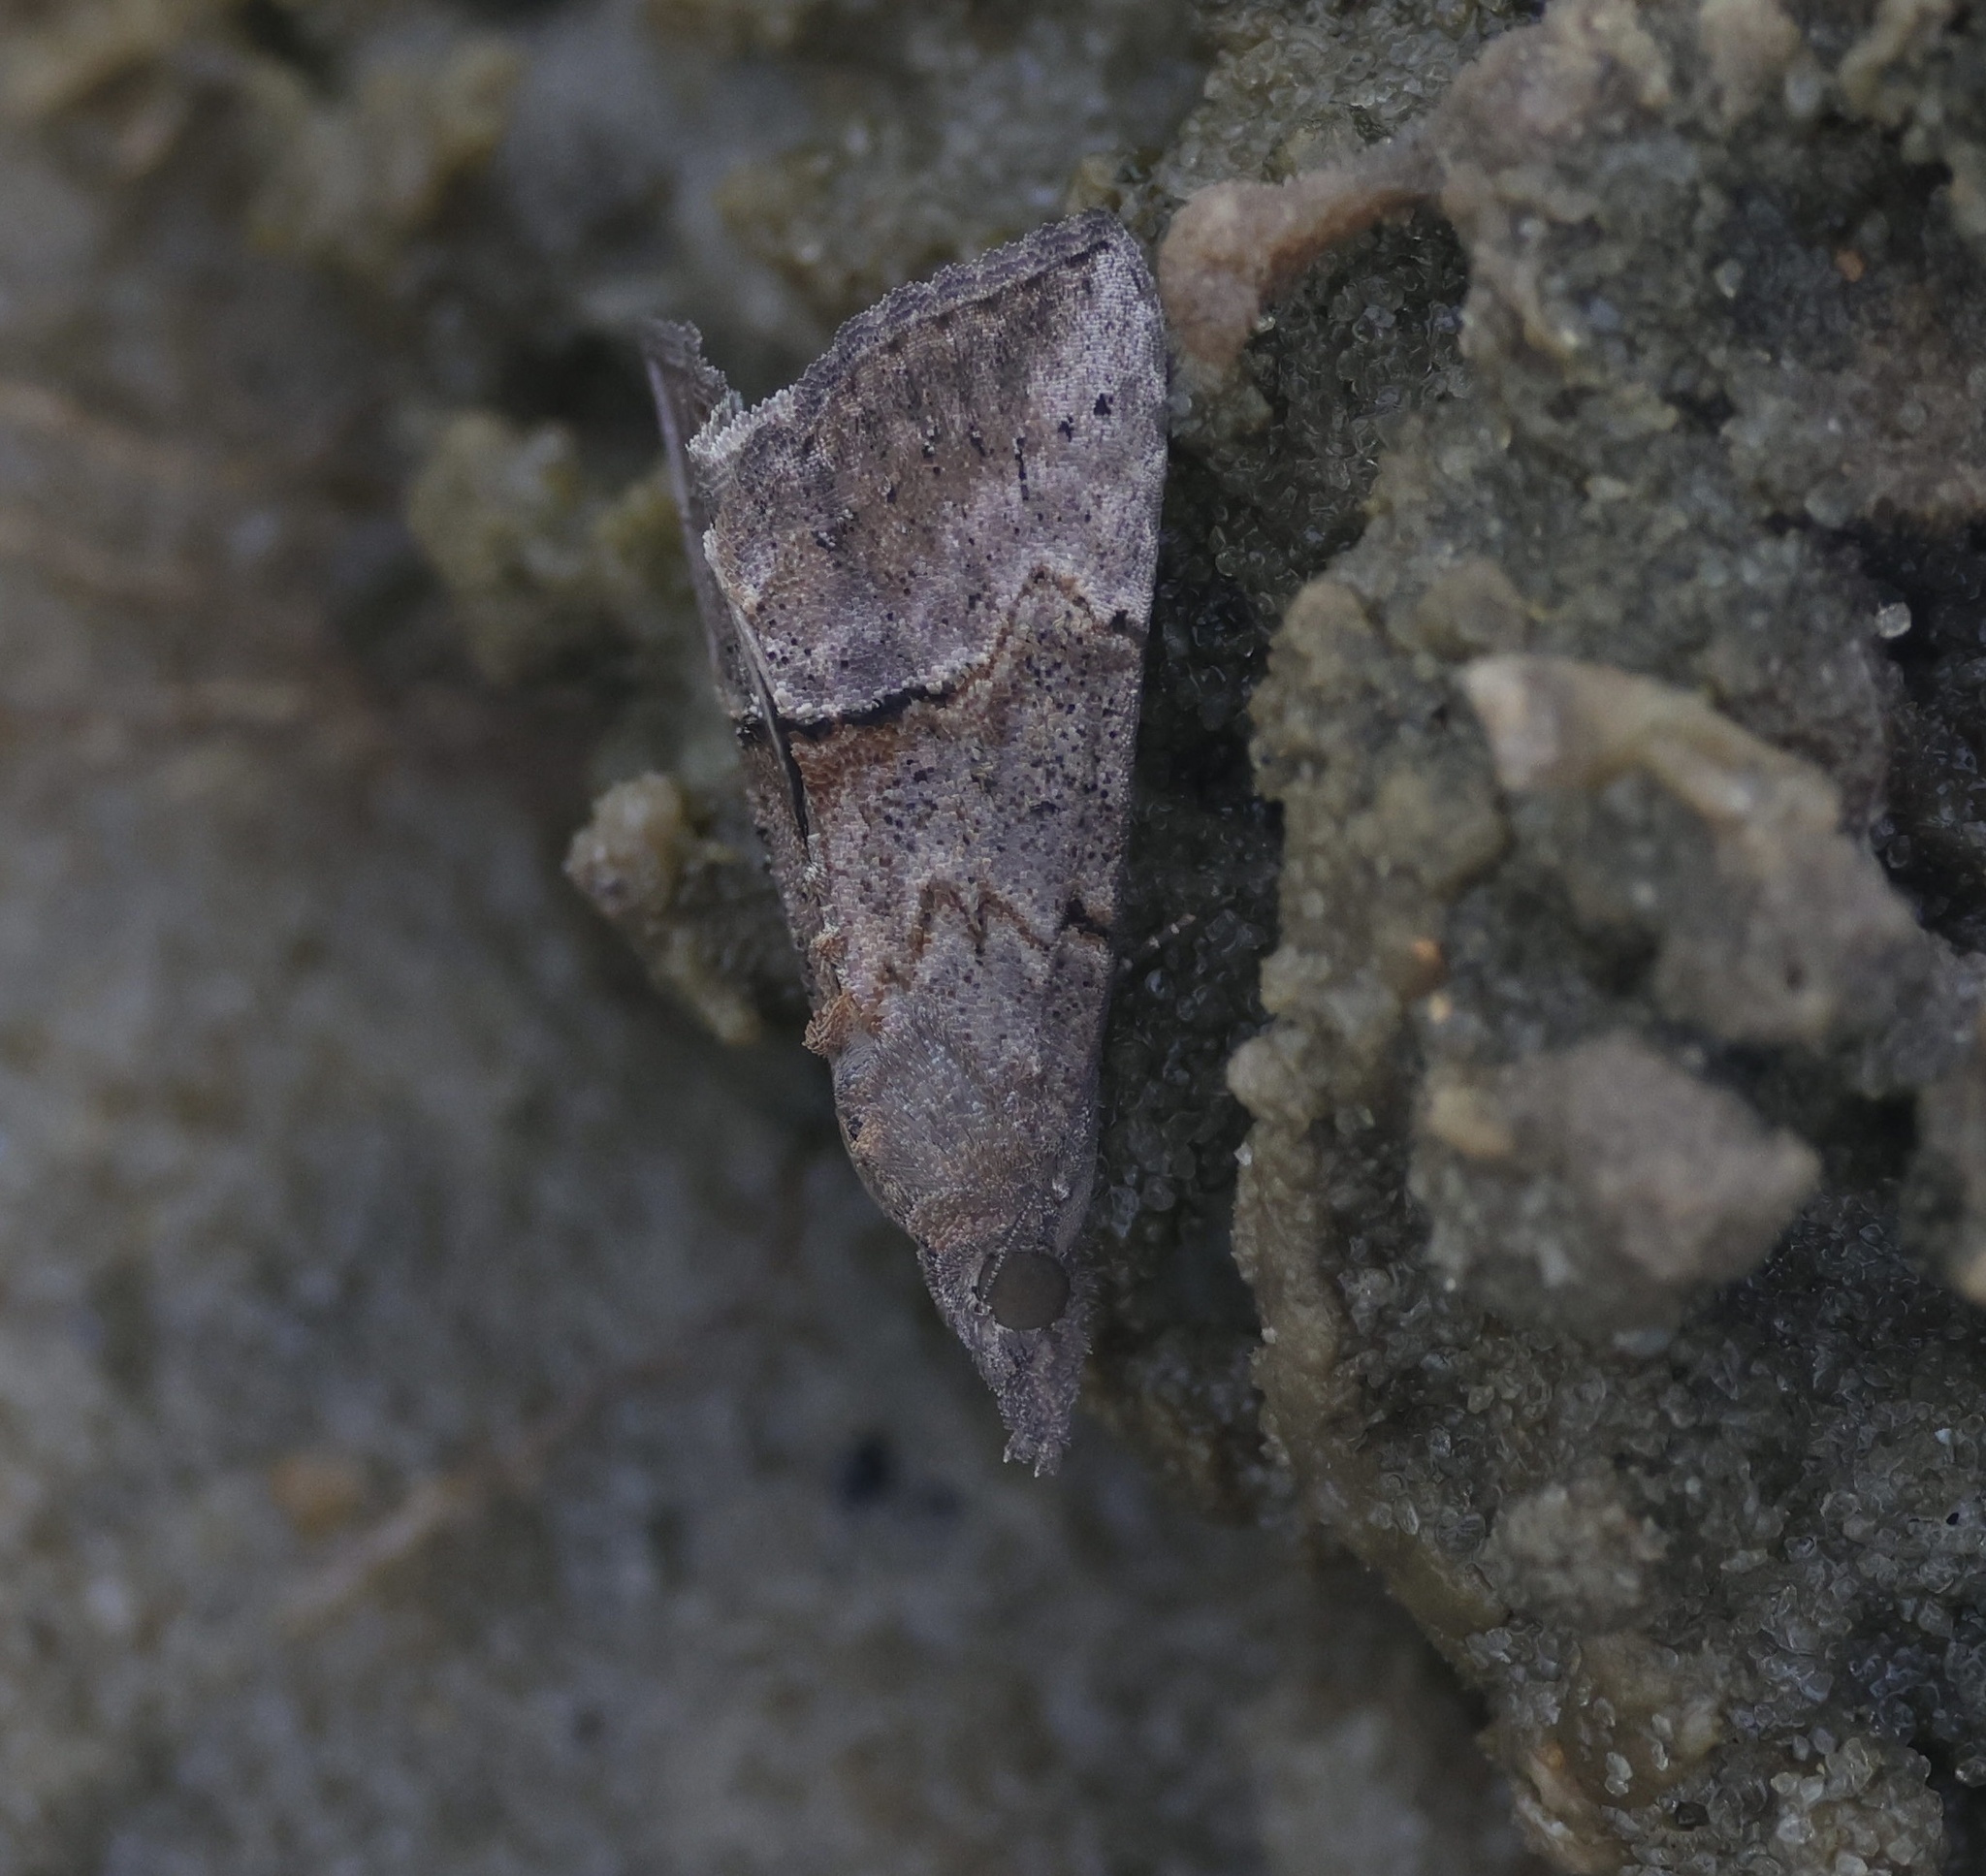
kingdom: Animalia
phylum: Arthropoda
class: Insecta
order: Lepidoptera
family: Erebidae
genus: Hypena
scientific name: Hypena scabra
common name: Green cloverworm
